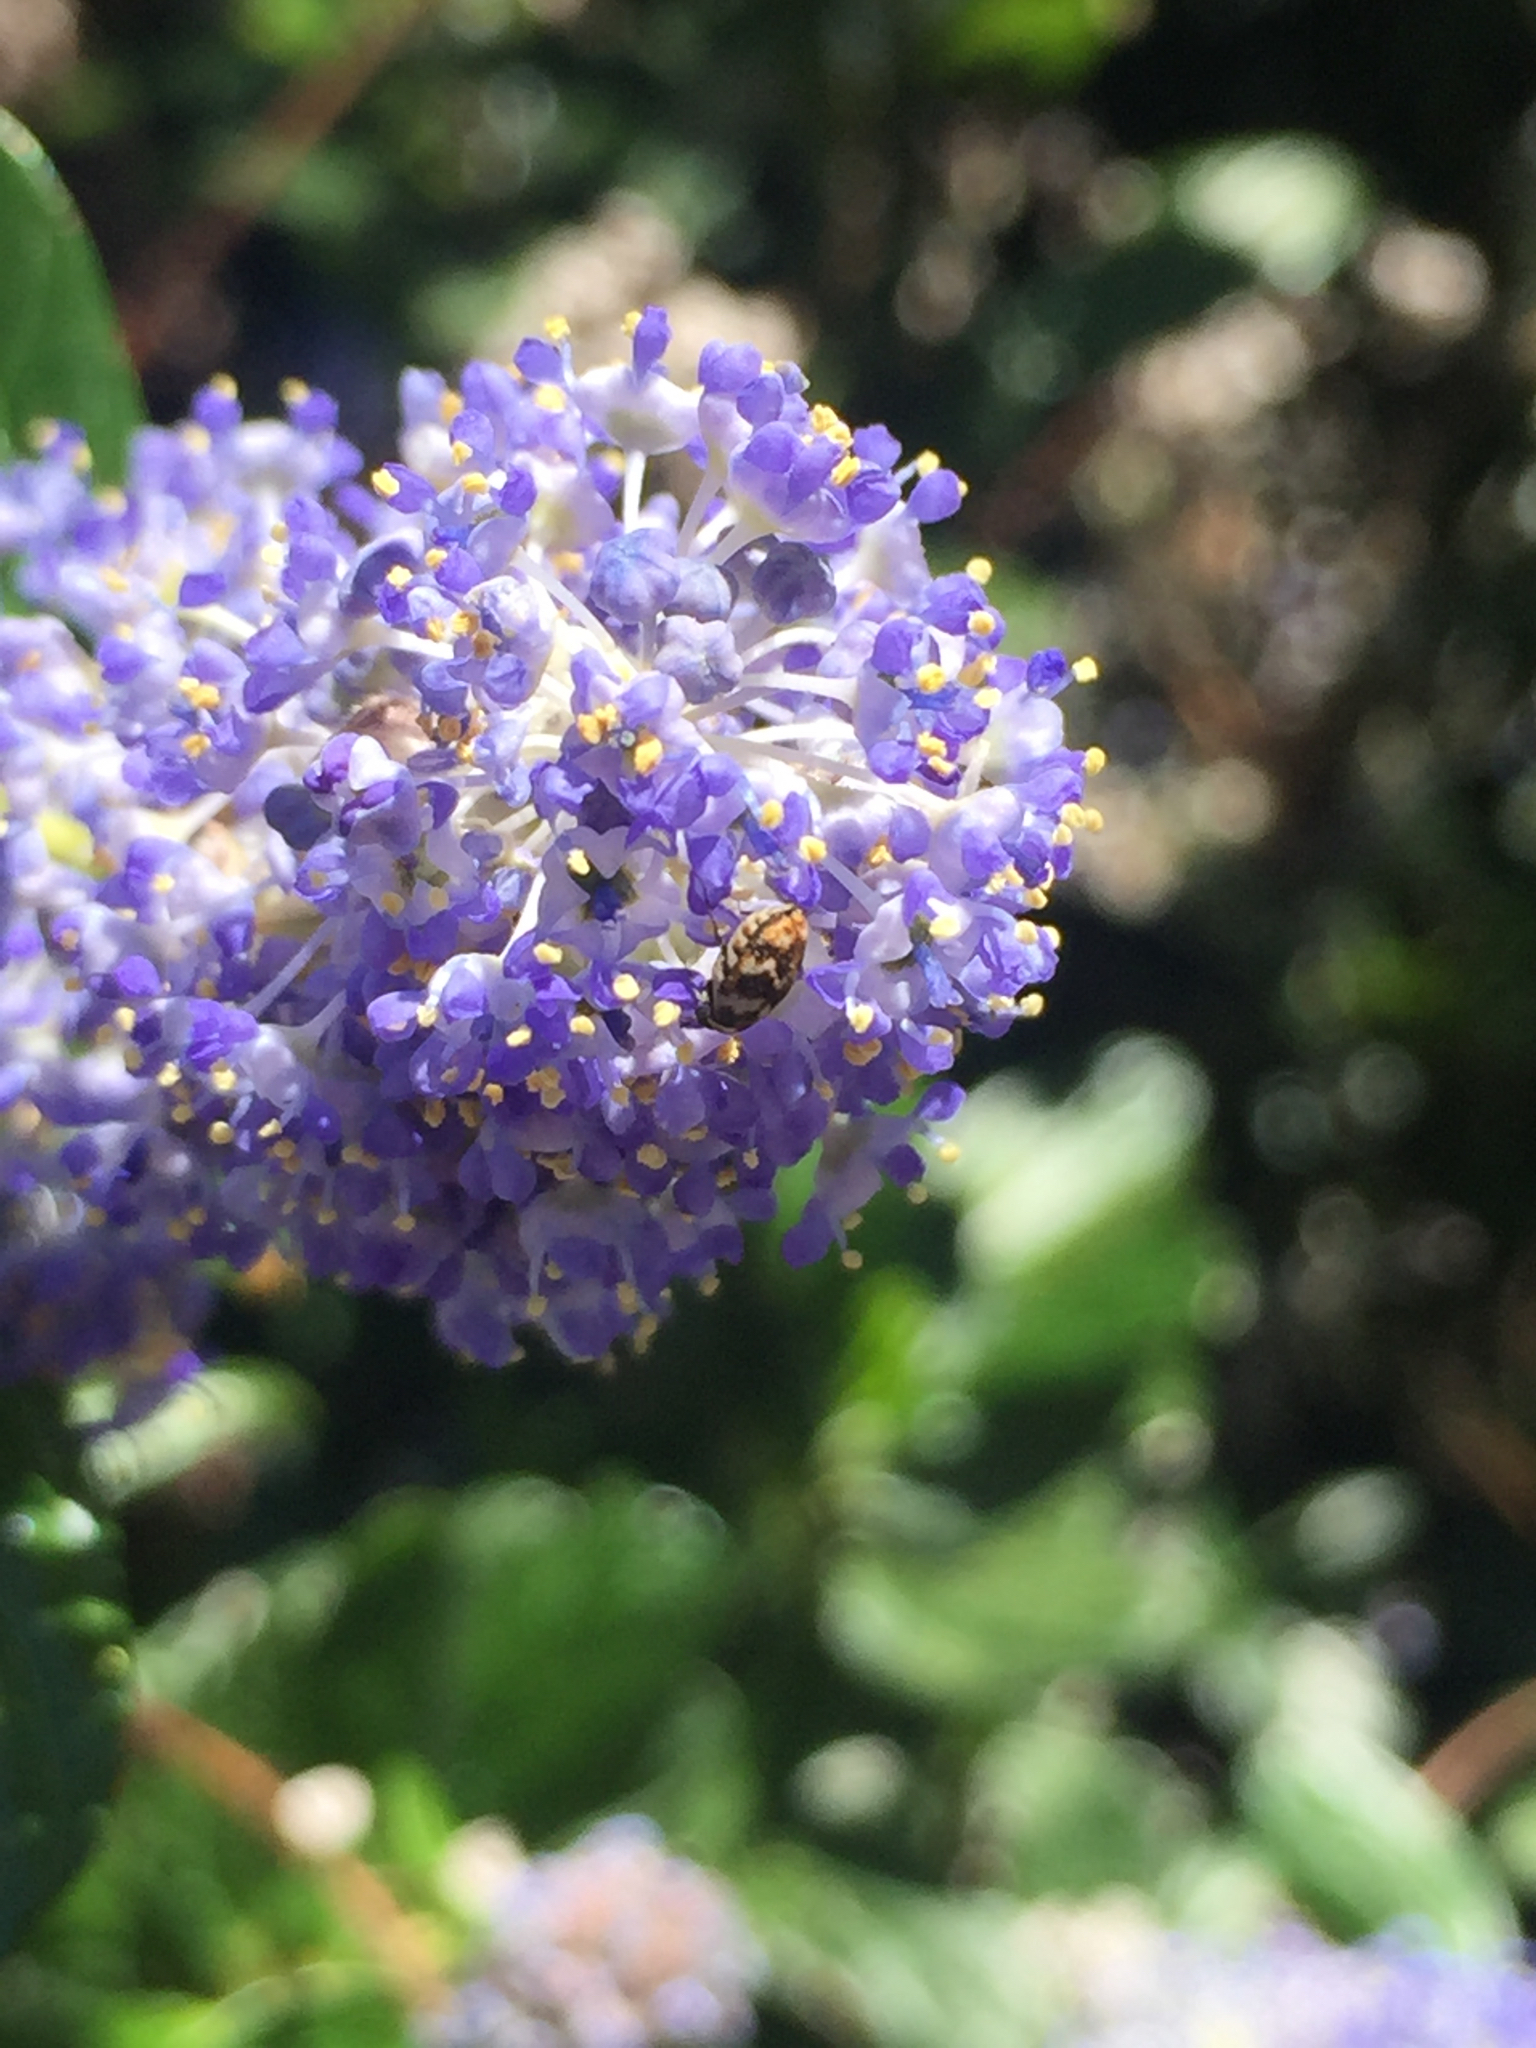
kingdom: Animalia
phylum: Arthropoda
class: Insecta
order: Coleoptera
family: Dermestidae
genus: Anthrenus
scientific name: Anthrenus verbasci
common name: Varied carpet beetle
